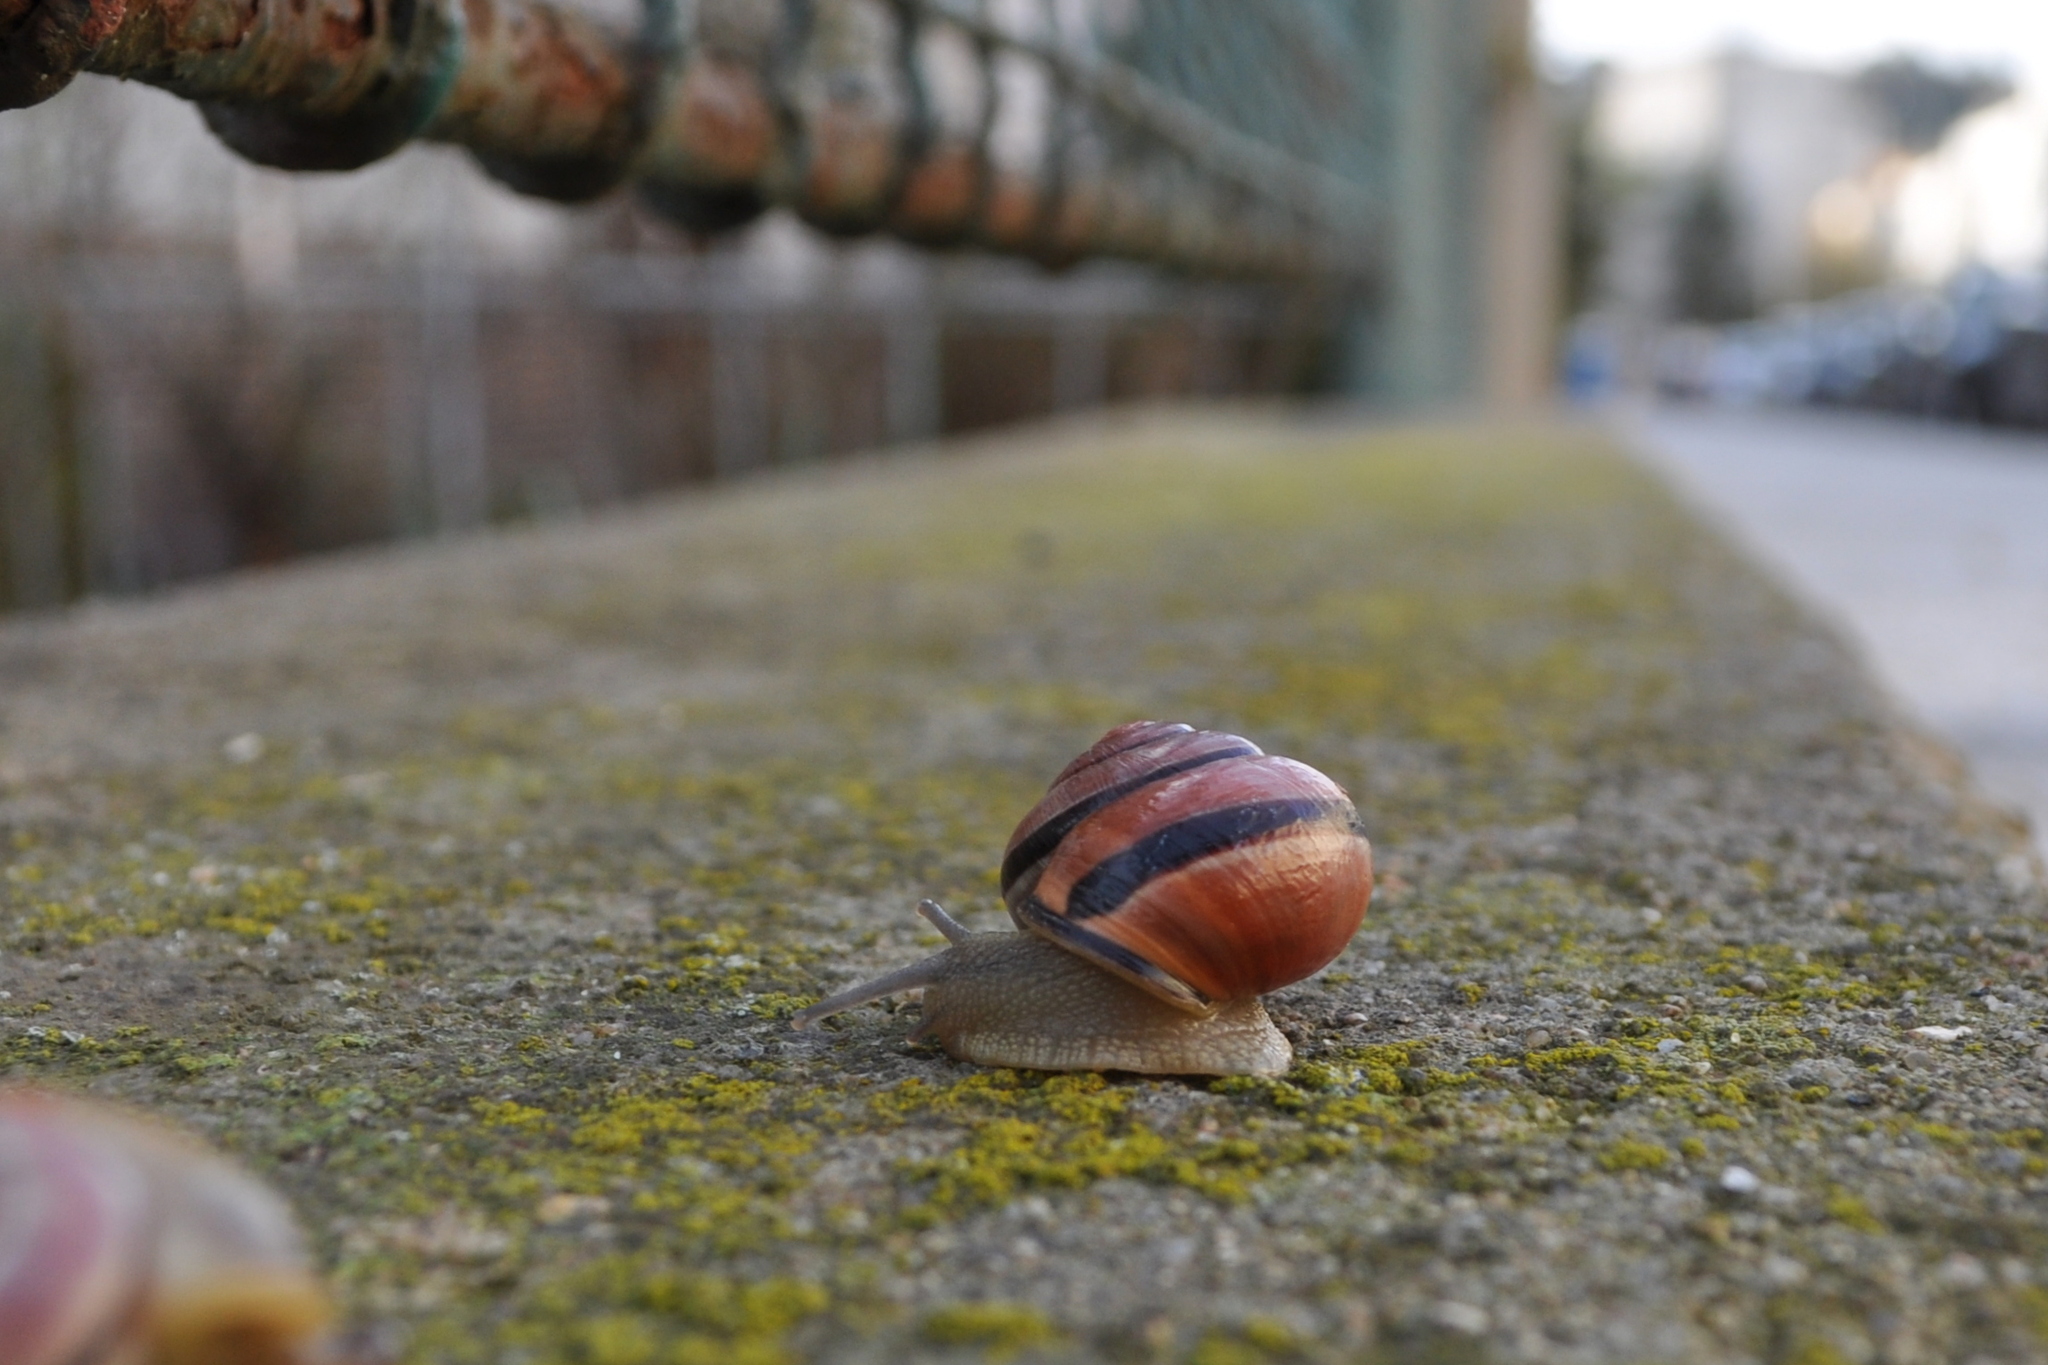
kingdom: Animalia
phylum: Mollusca
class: Gastropoda
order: Stylommatophora
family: Helicidae
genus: Cepaea
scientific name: Cepaea nemoralis
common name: Grovesnail
